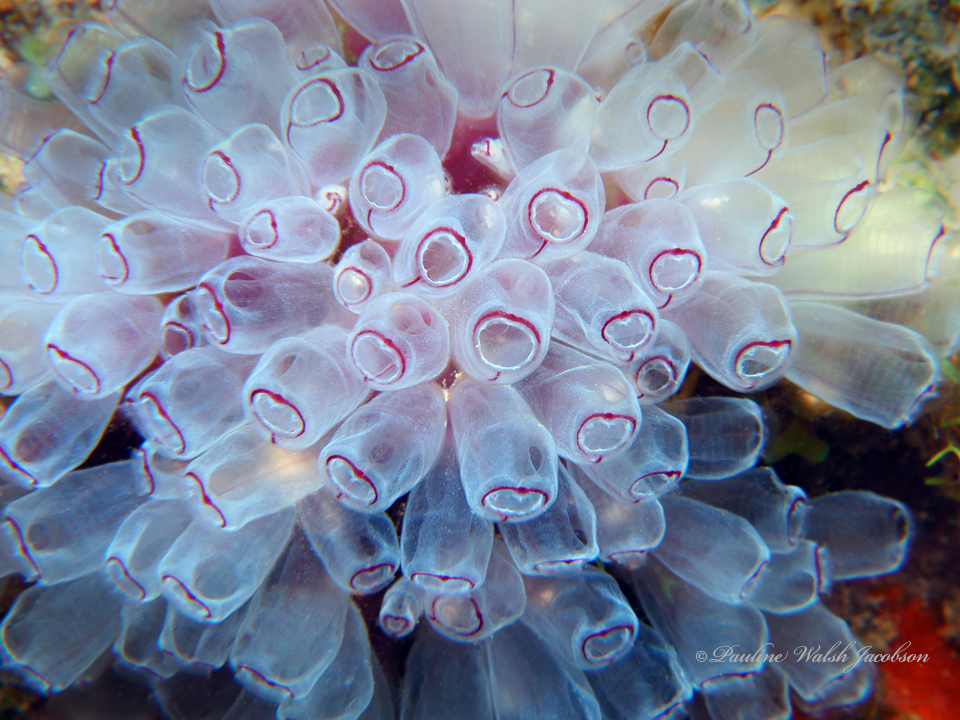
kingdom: Animalia
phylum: Chordata
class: Ascidiacea
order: Aplousobranchia
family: Clavelinidae
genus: Clavelina
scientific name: Clavelina picta
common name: Painted tunicate
